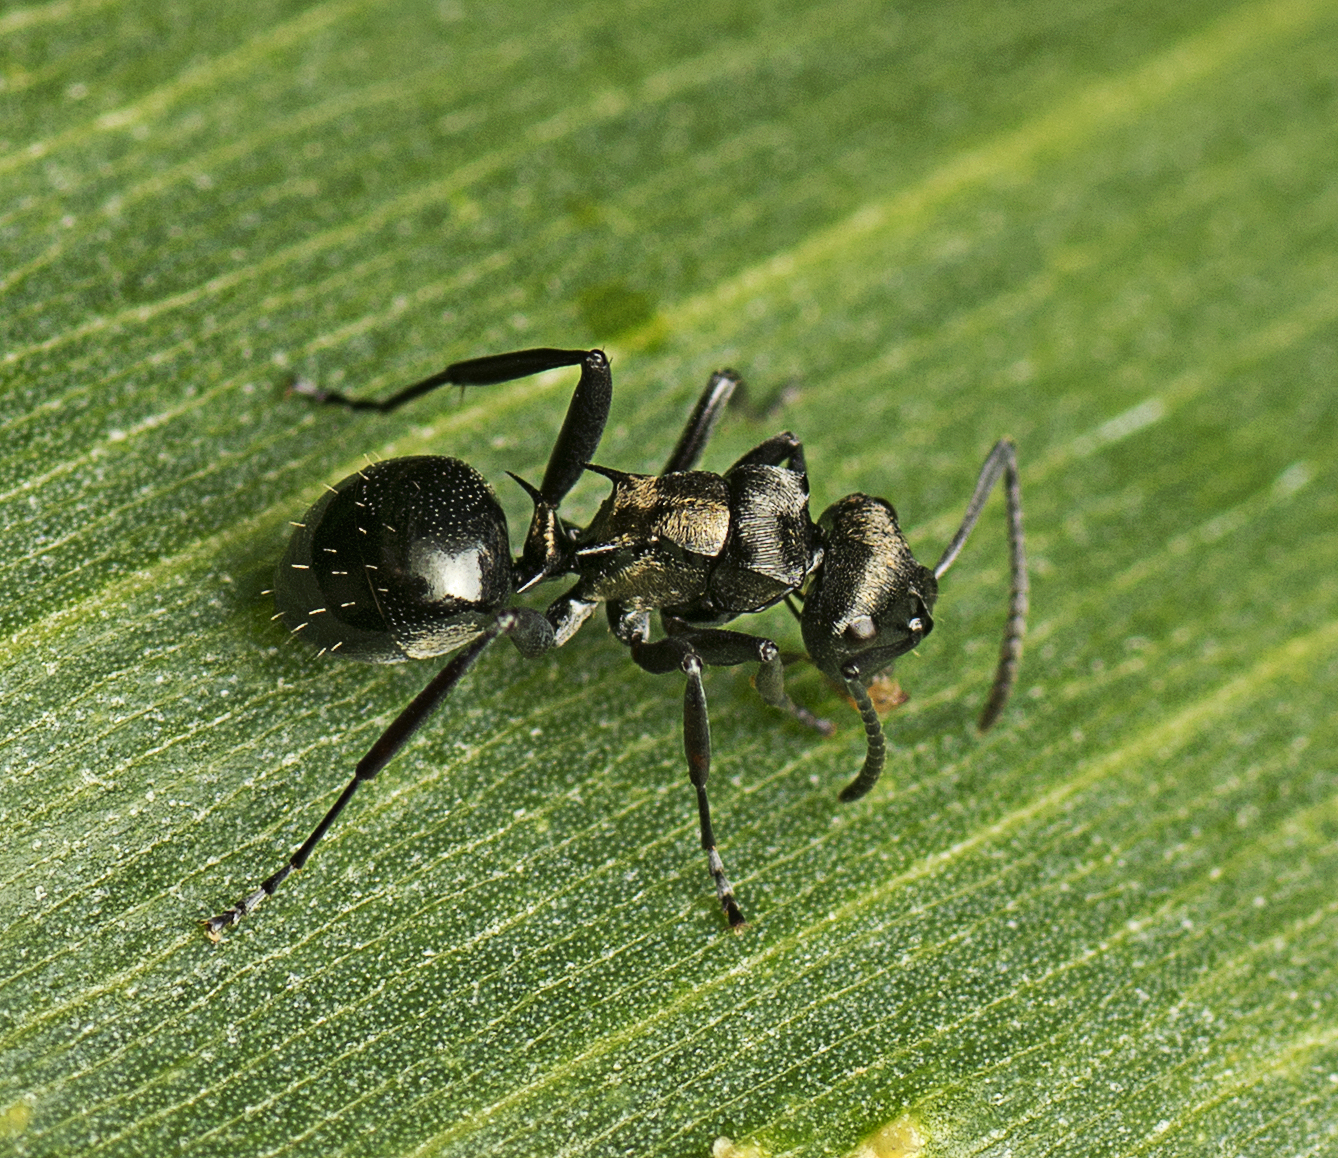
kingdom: Animalia
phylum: Arthropoda
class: Insecta
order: Hymenoptera
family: Formicidae
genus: Polyrhachis
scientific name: Polyrhachis clio
